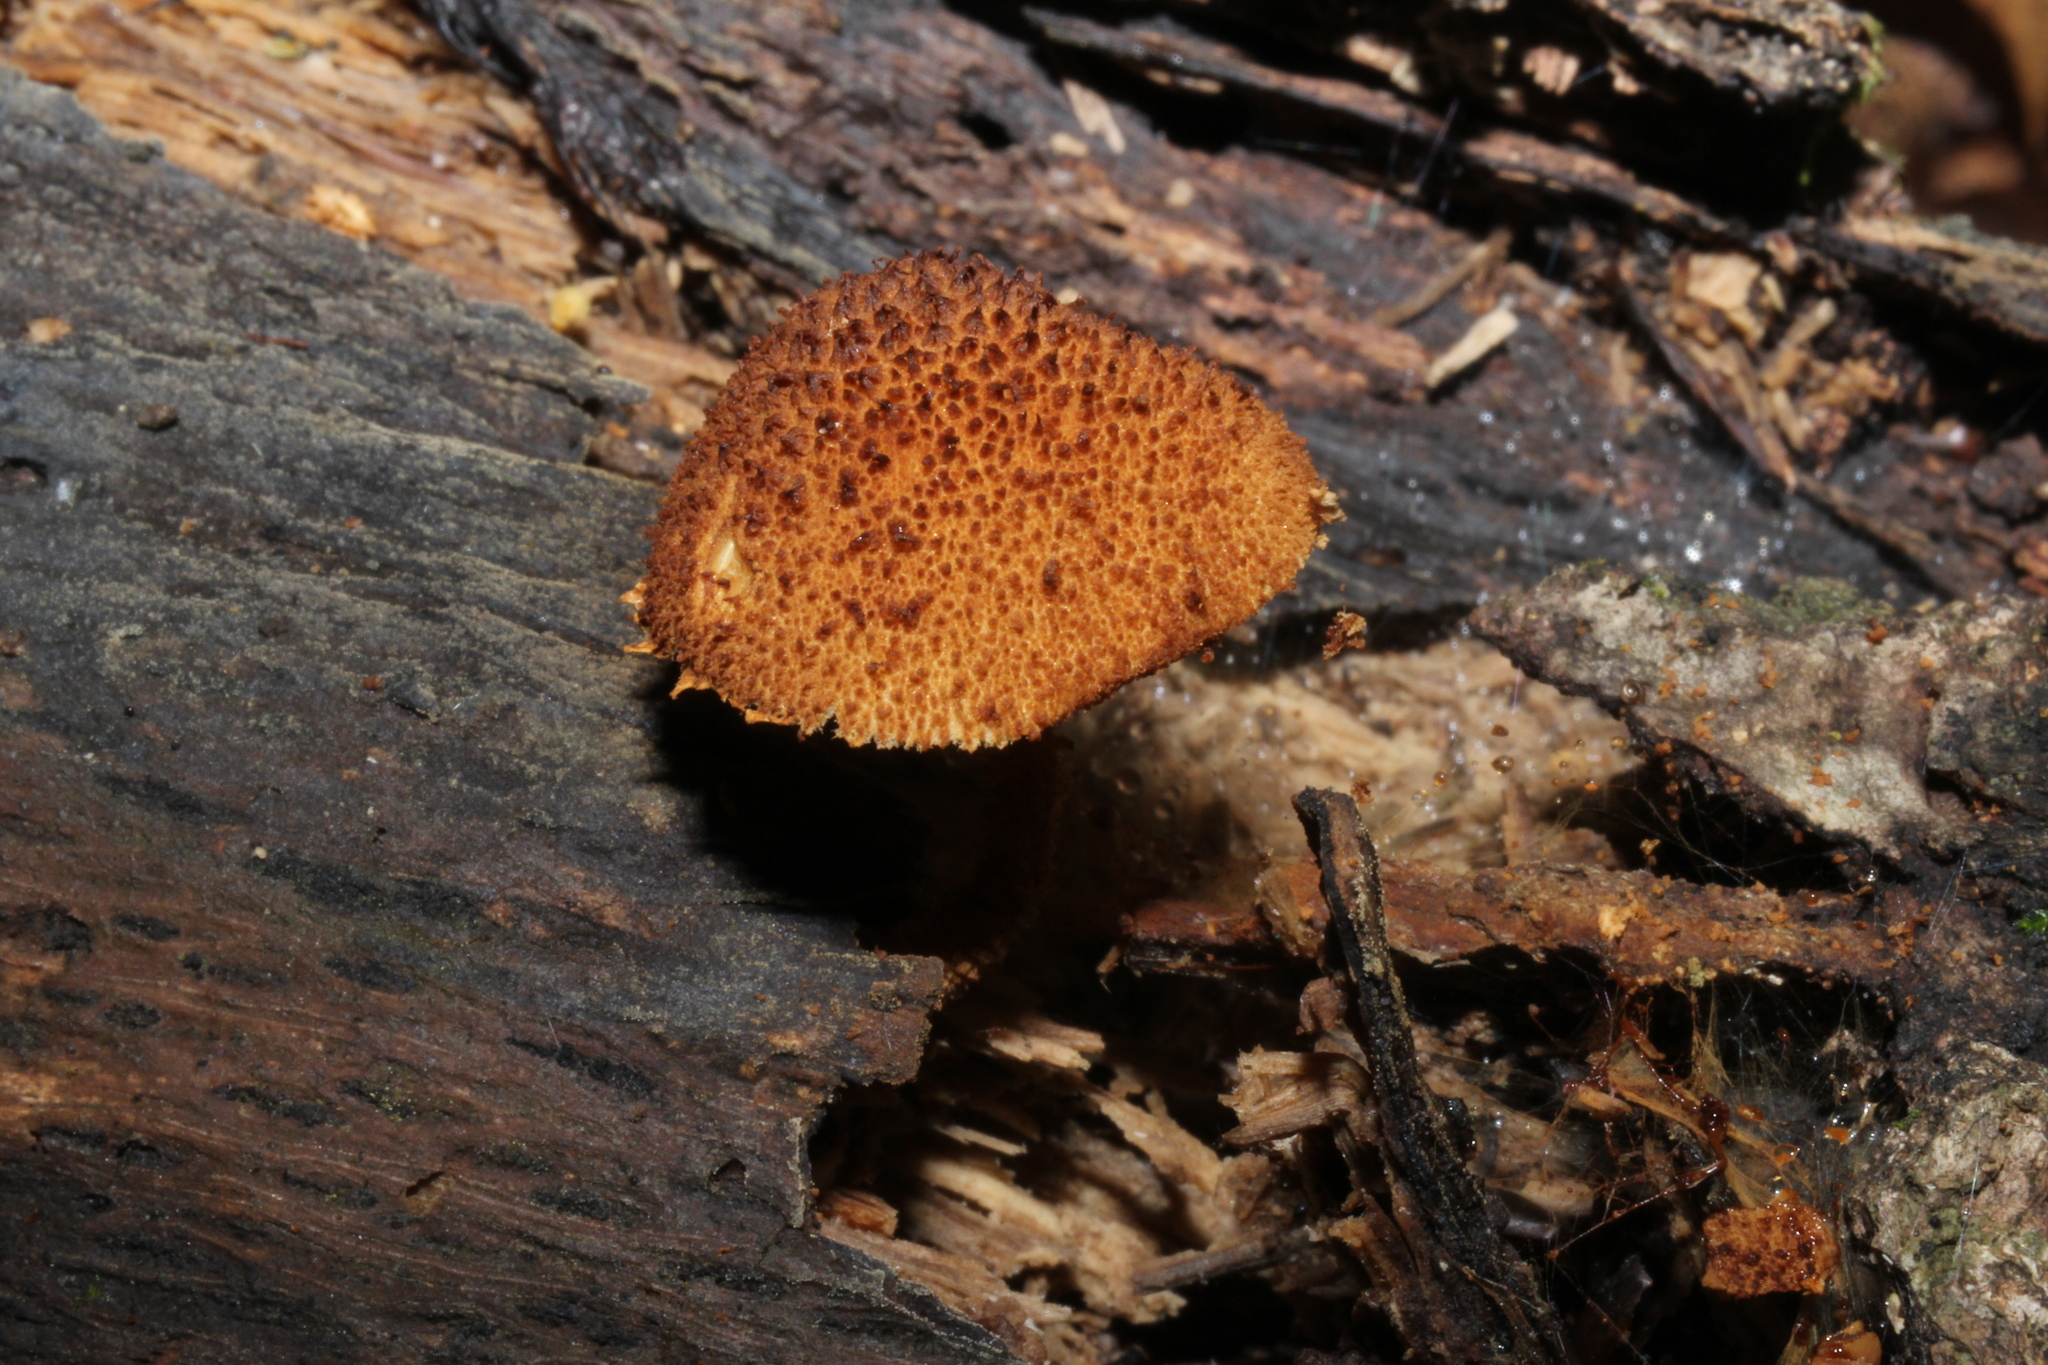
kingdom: Fungi
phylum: Basidiomycota
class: Agaricomycetes
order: Agaricales
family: Tubariaceae
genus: Flammulaster
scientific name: Flammulaster erinaceellus
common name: Powder-scale pholiota
